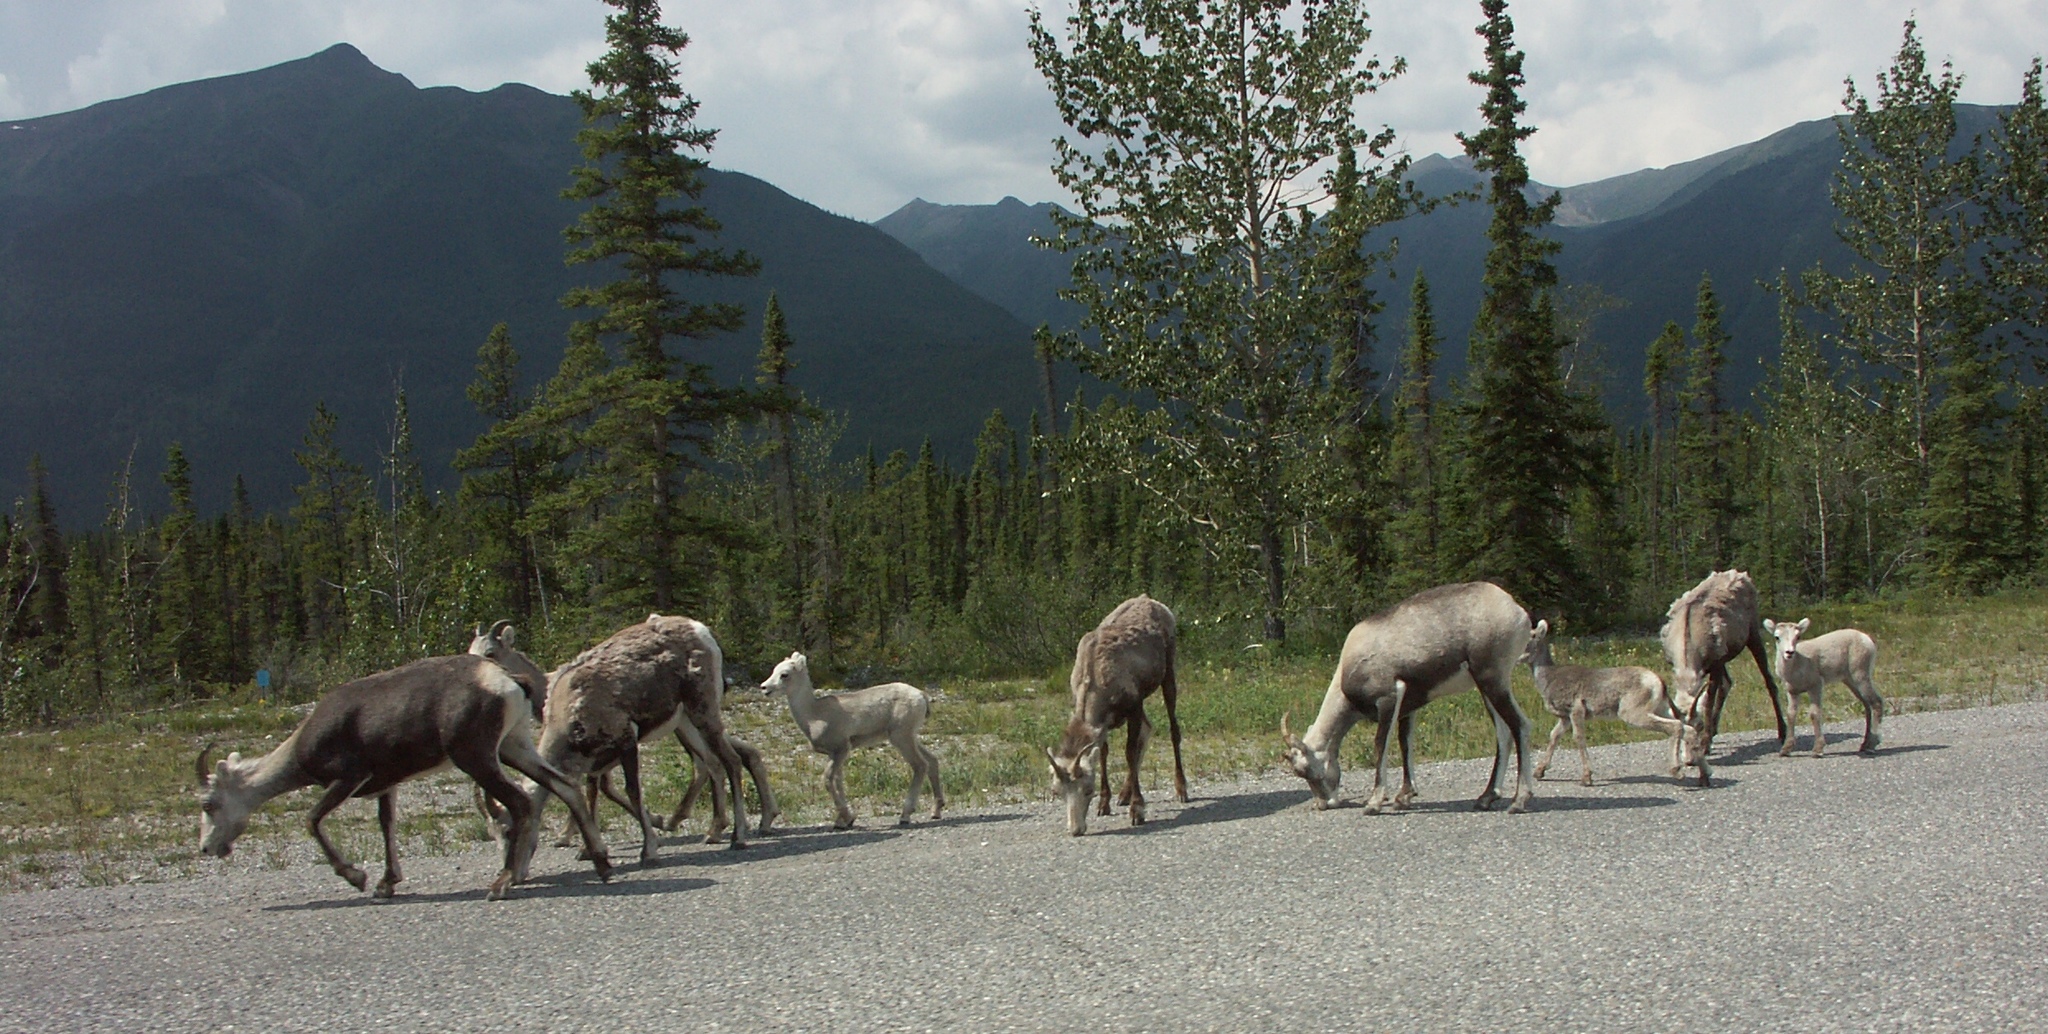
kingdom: Animalia
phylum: Chordata
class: Mammalia
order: Artiodactyla
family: Bovidae
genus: Ovis
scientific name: Ovis dalli
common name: Dall's sheep
